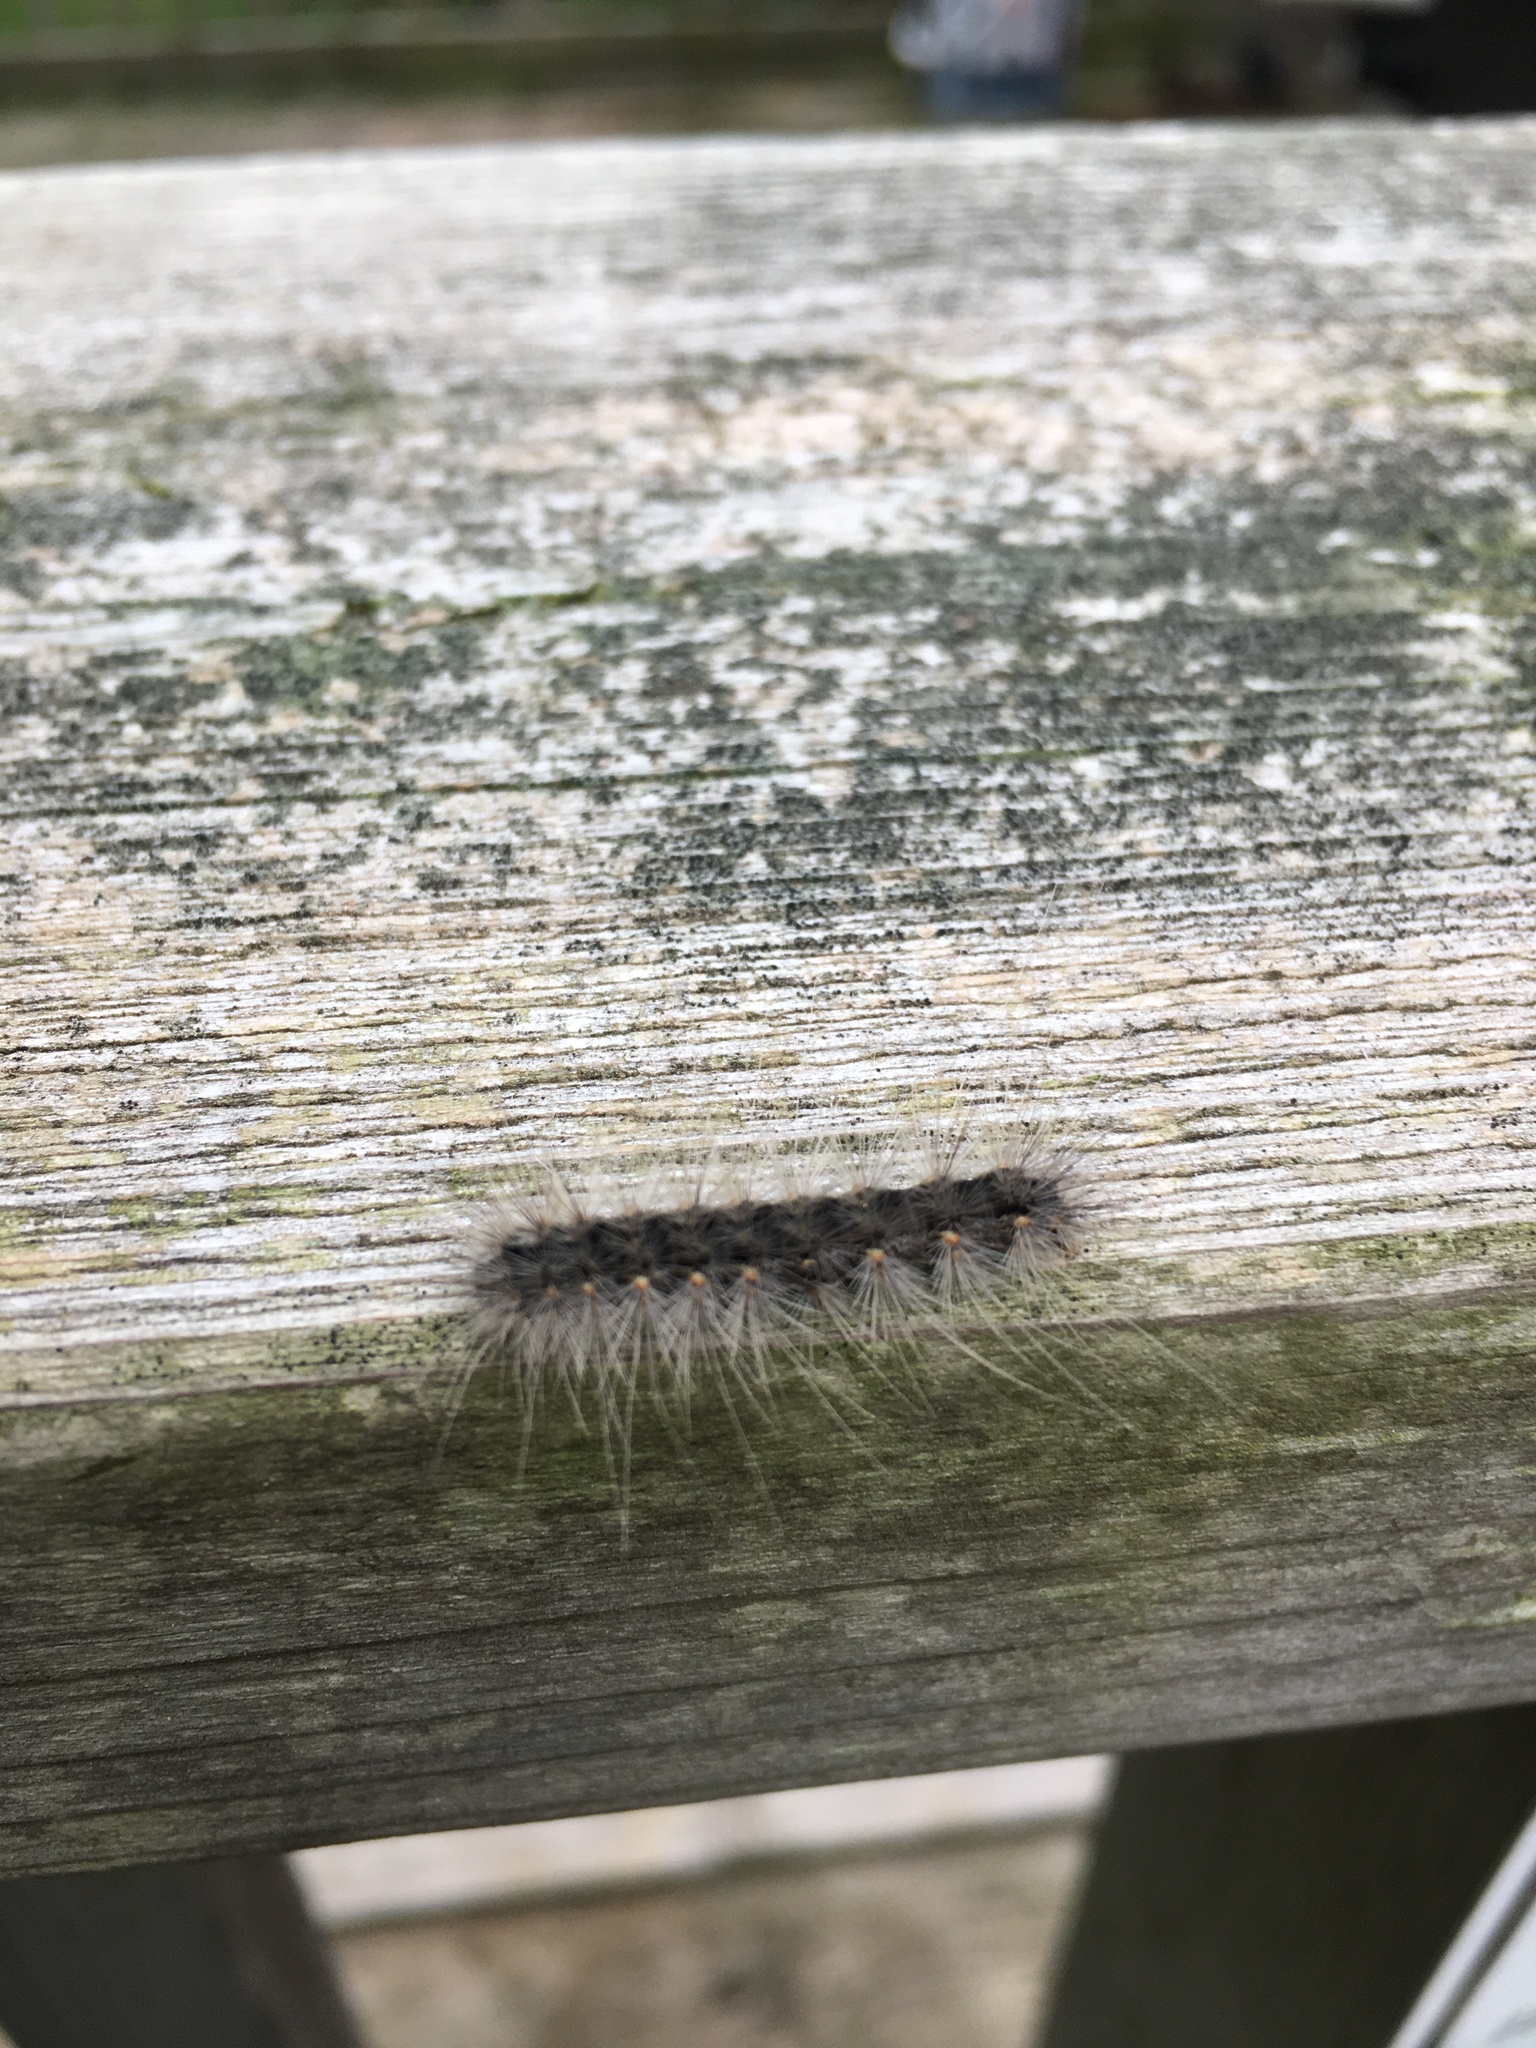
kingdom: Animalia
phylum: Arthropoda
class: Insecta
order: Lepidoptera
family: Erebidae
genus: Hyphantria
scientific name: Hyphantria cunea
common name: American white moth
